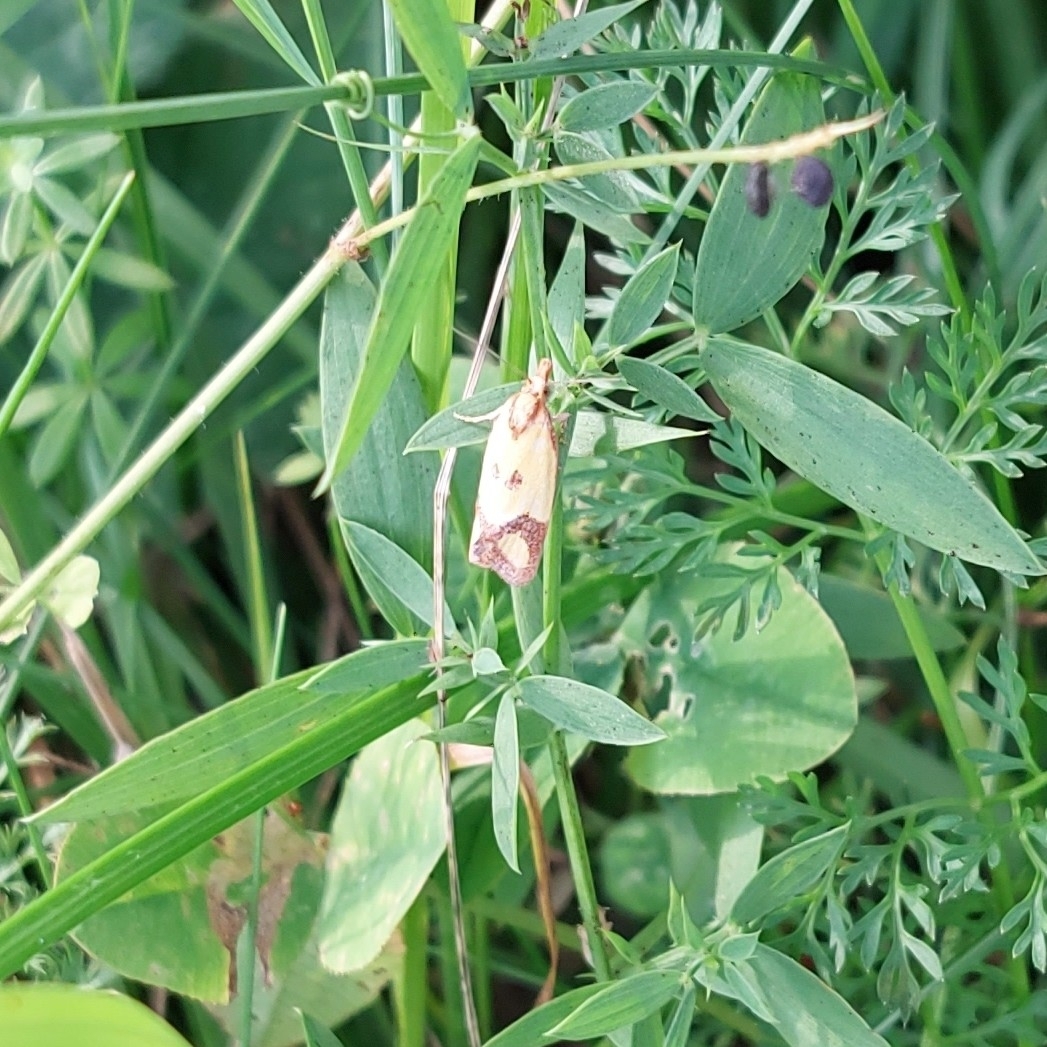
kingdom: Animalia
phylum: Arthropoda
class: Insecta
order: Lepidoptera
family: Tortricidae
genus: Agapeta
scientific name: Agapeta zoegana
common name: Sulfur knapweed root moth
